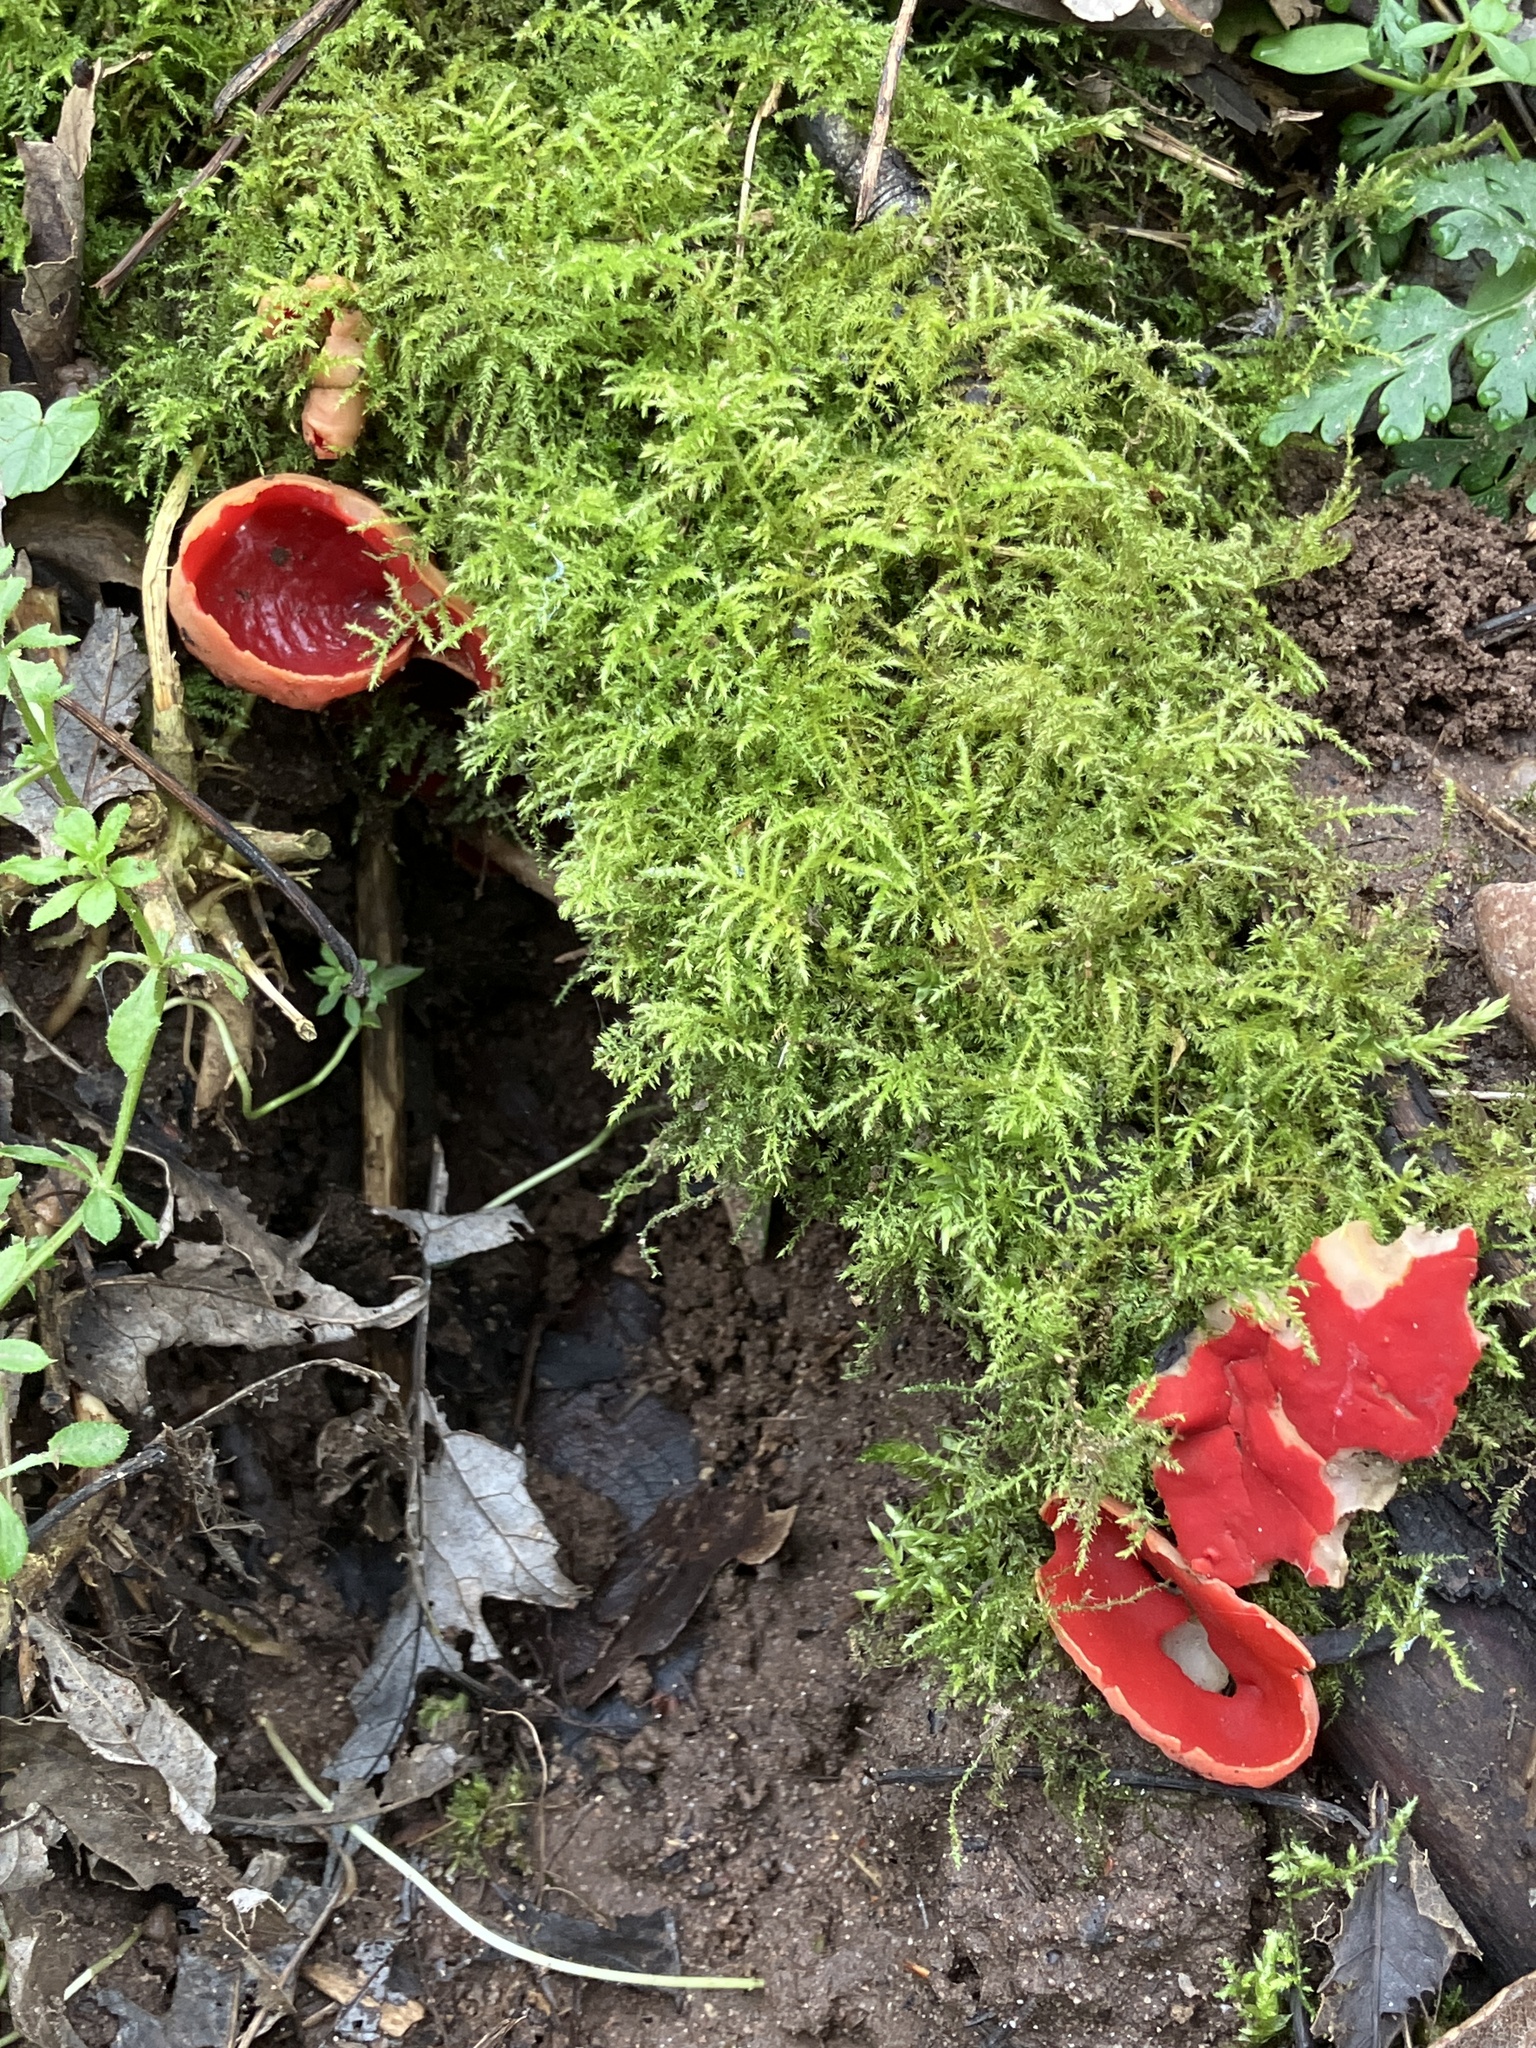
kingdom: Fungi
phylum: Ascomycota
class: Pezizomycetes
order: Pezizales
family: Sarcoscyphaceae
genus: Sarcoscypha
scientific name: Sarcoscypha
